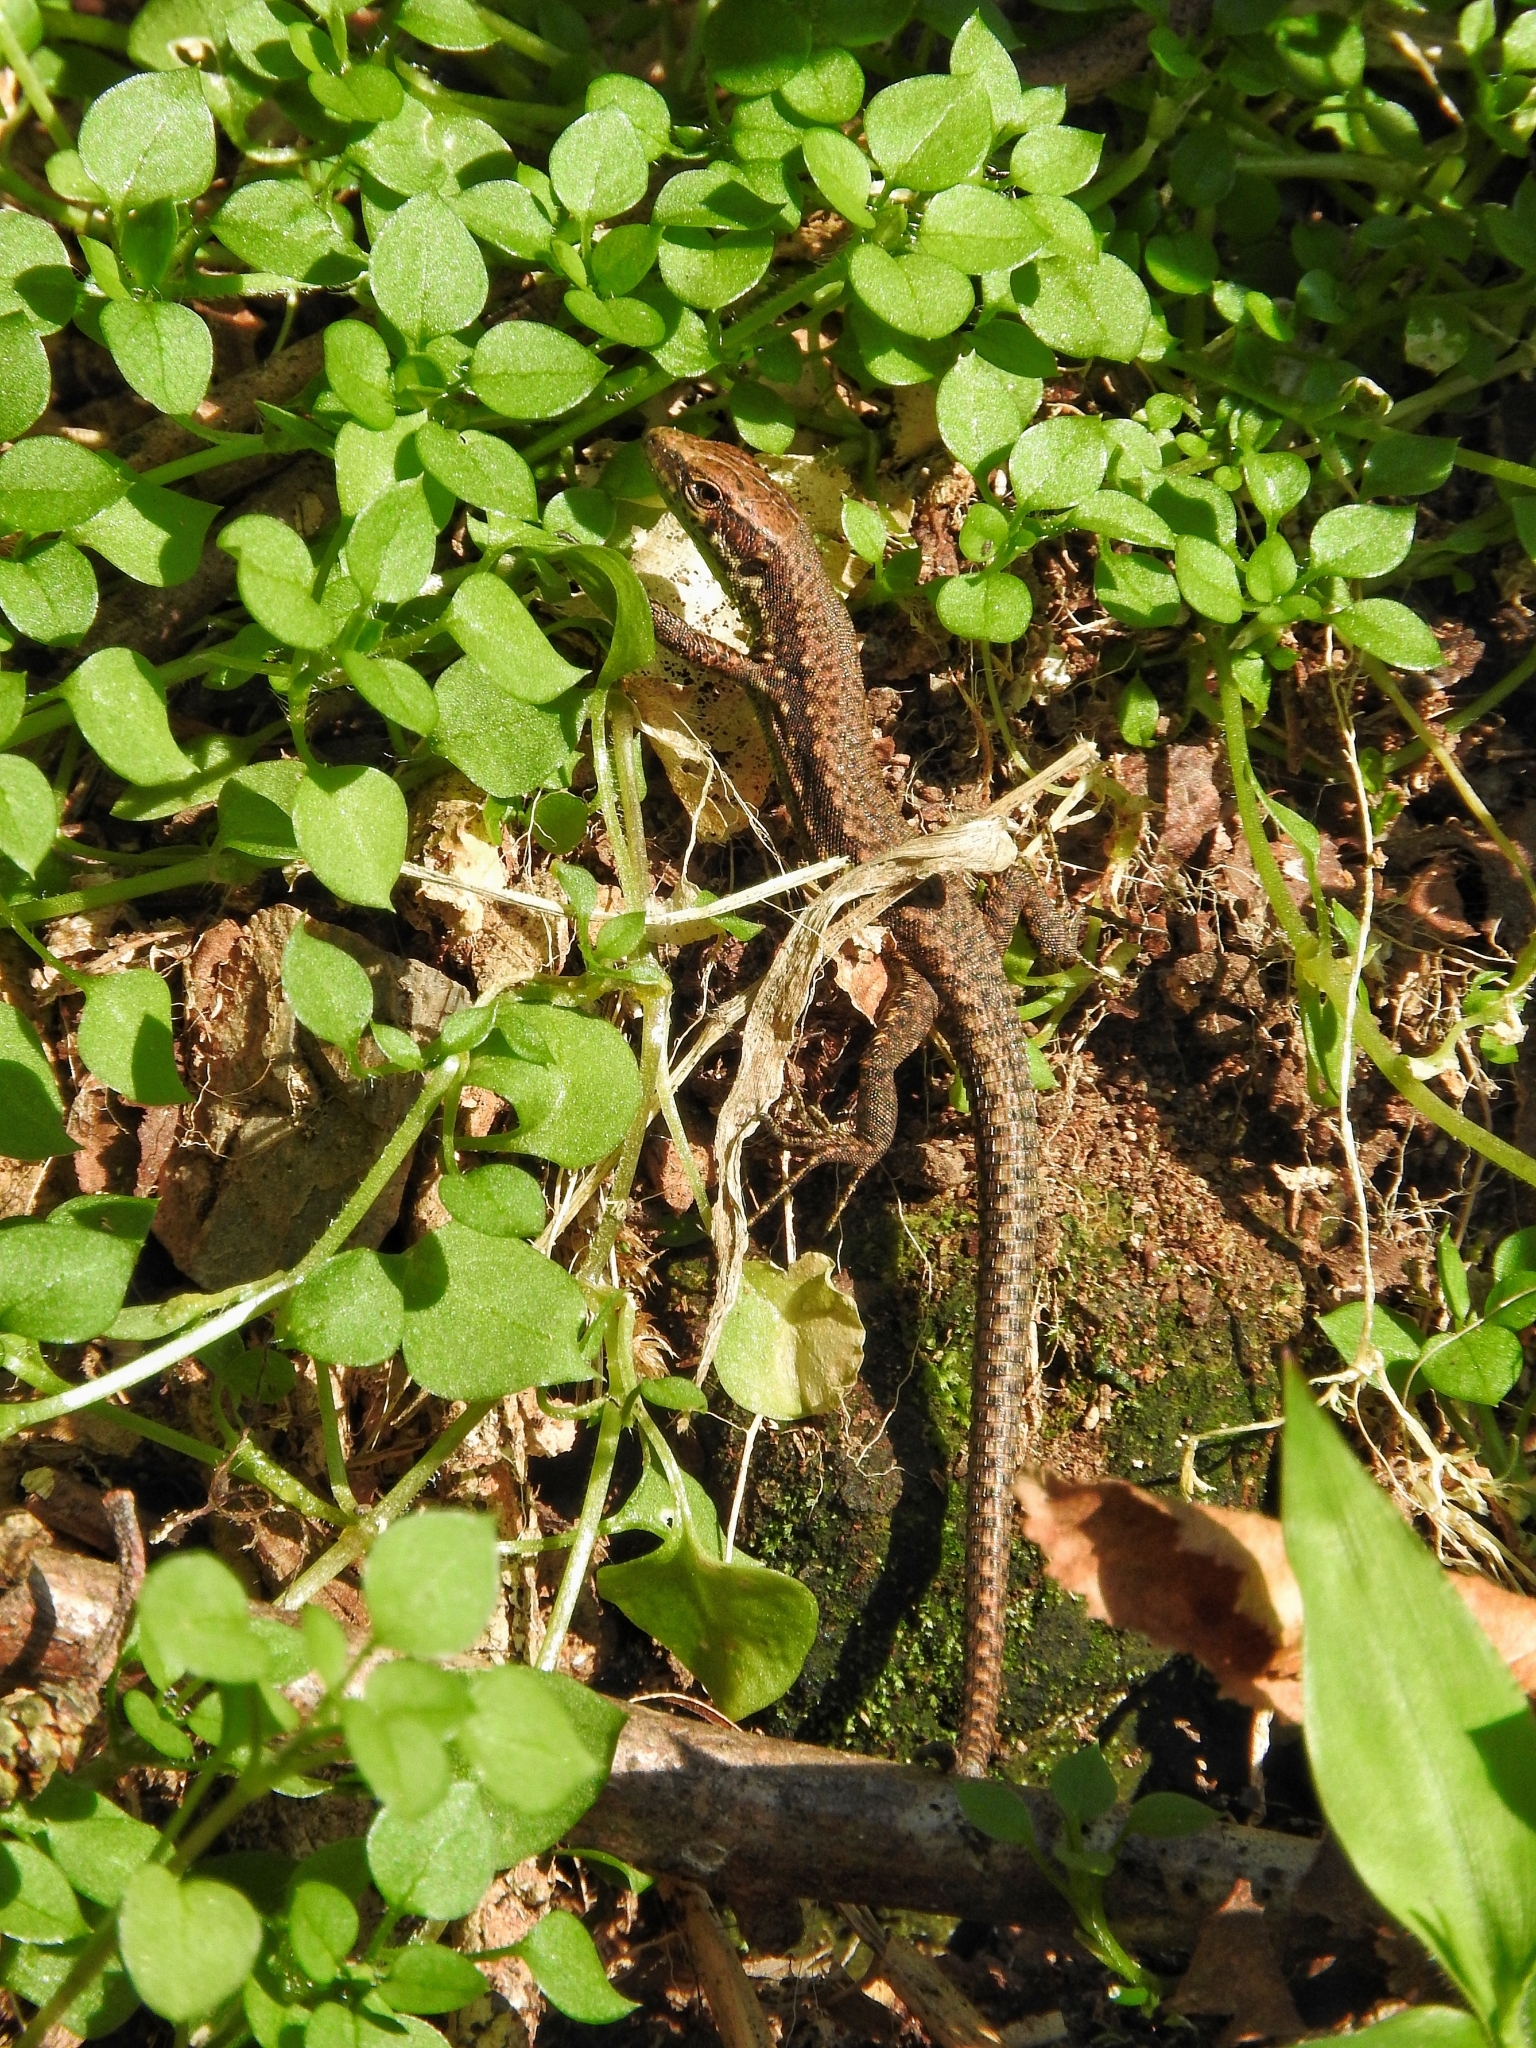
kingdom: Animalia
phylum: Chordata
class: Squamata
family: Lacertidae
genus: Darevskia
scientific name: Darevskia chlorogaster
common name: Green-bellied lizard
